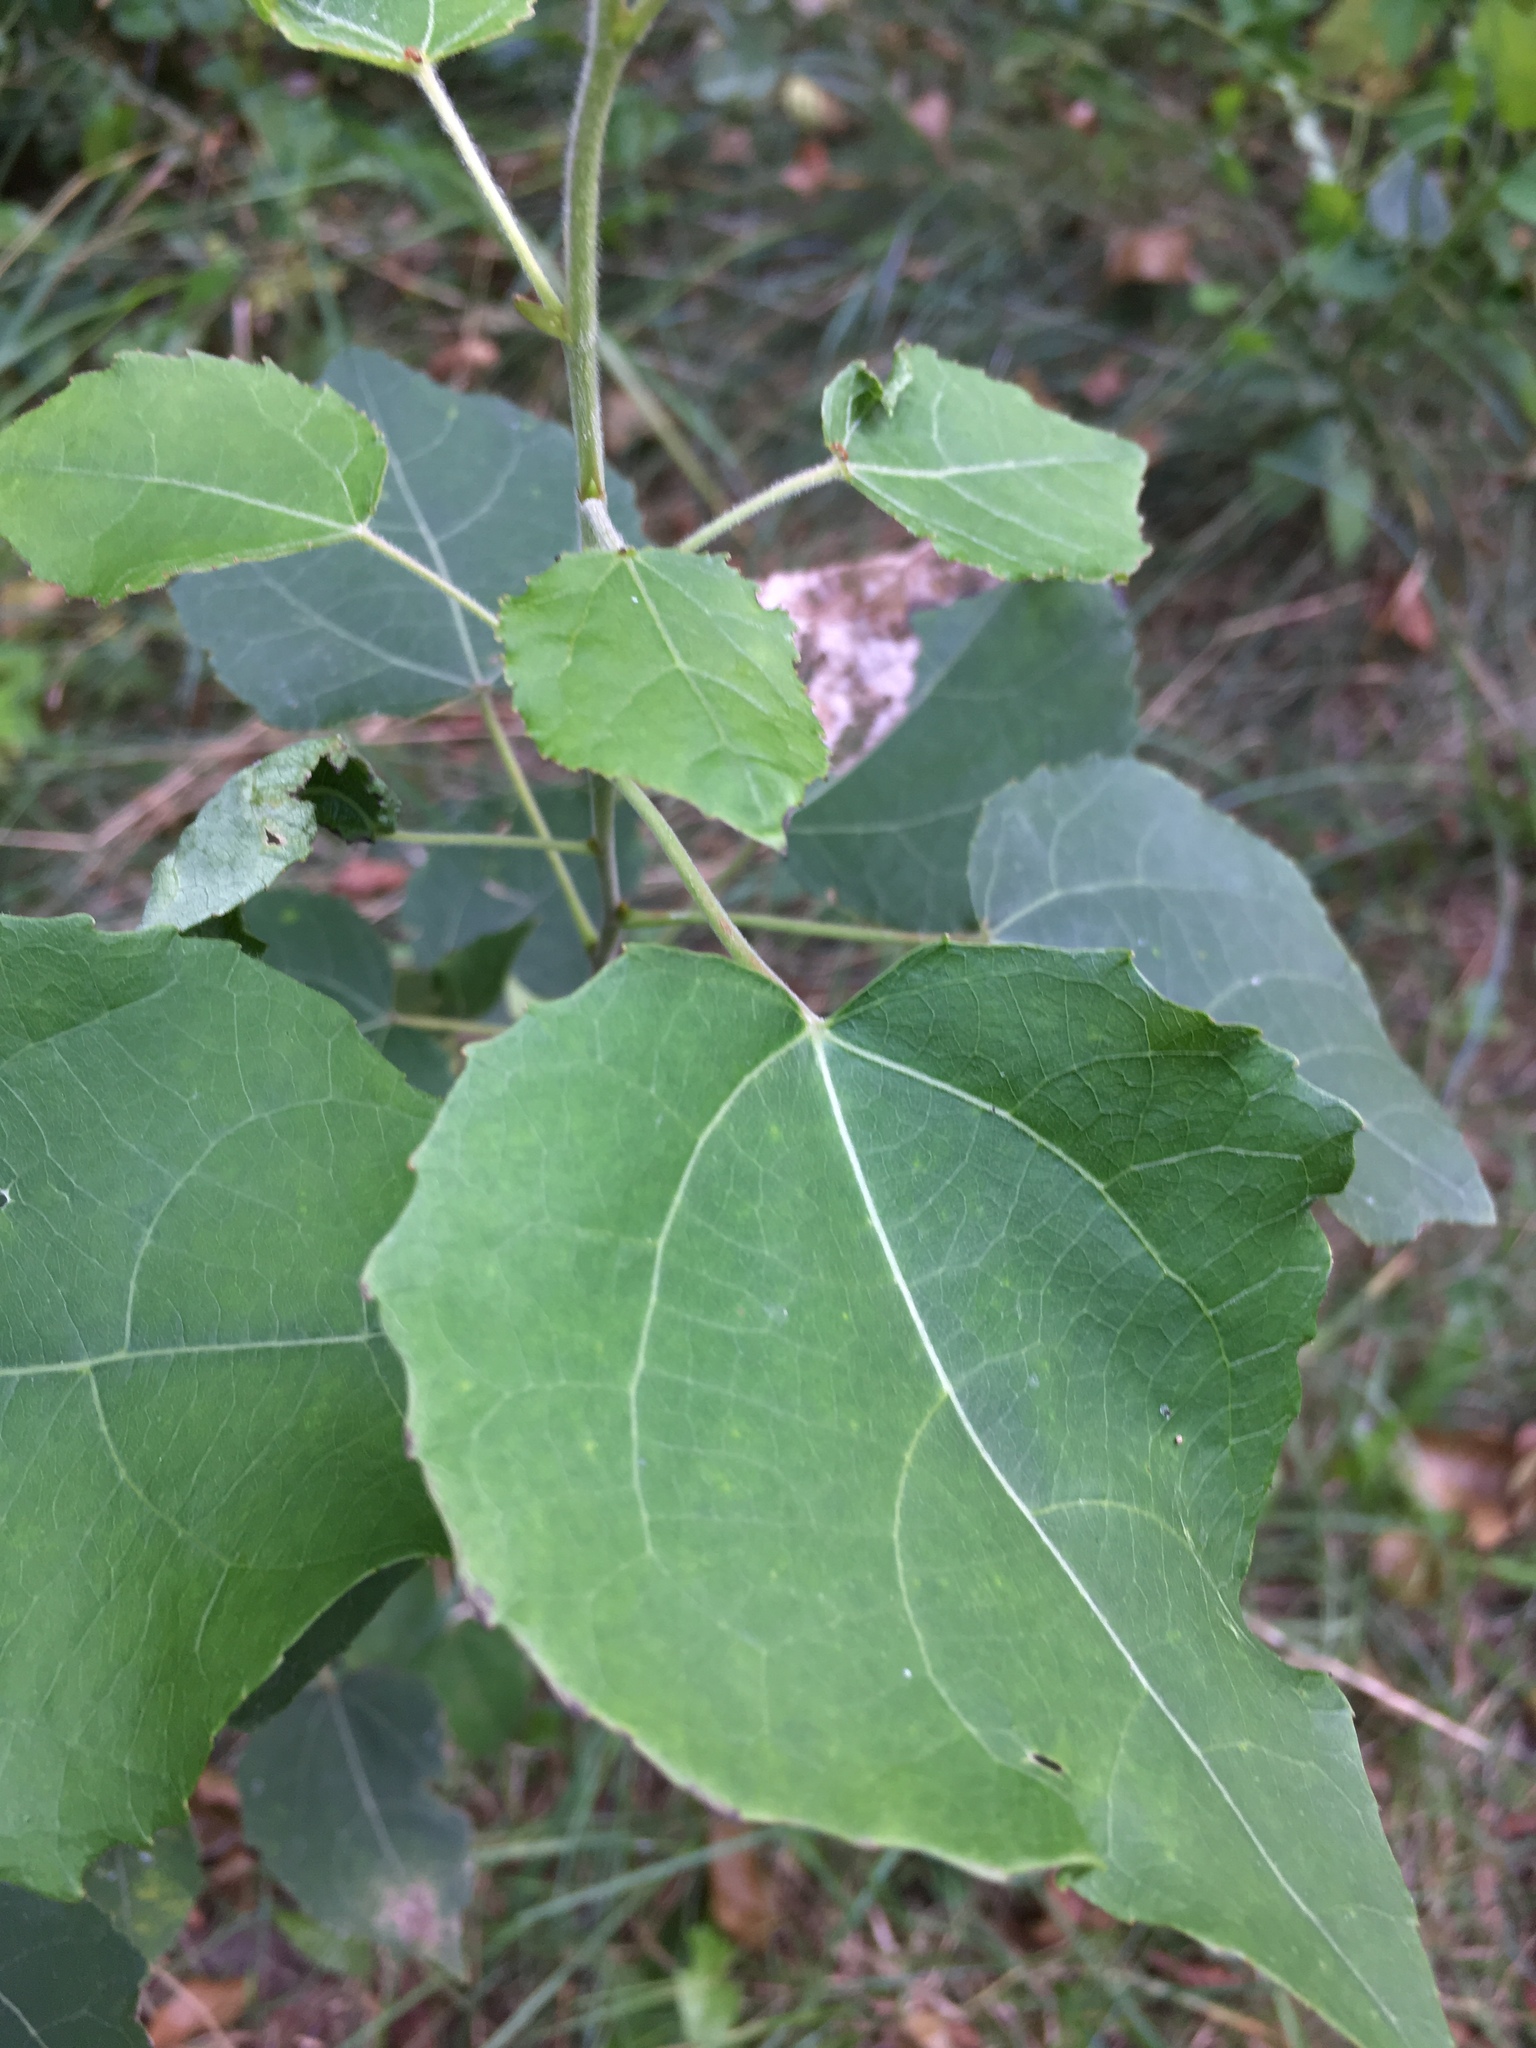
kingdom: Plantae
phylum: Tracheophyta
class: Magnoliopsida
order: Malpighiales
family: Salicaceae
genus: Populus
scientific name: Populus tremula
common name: European aspen
